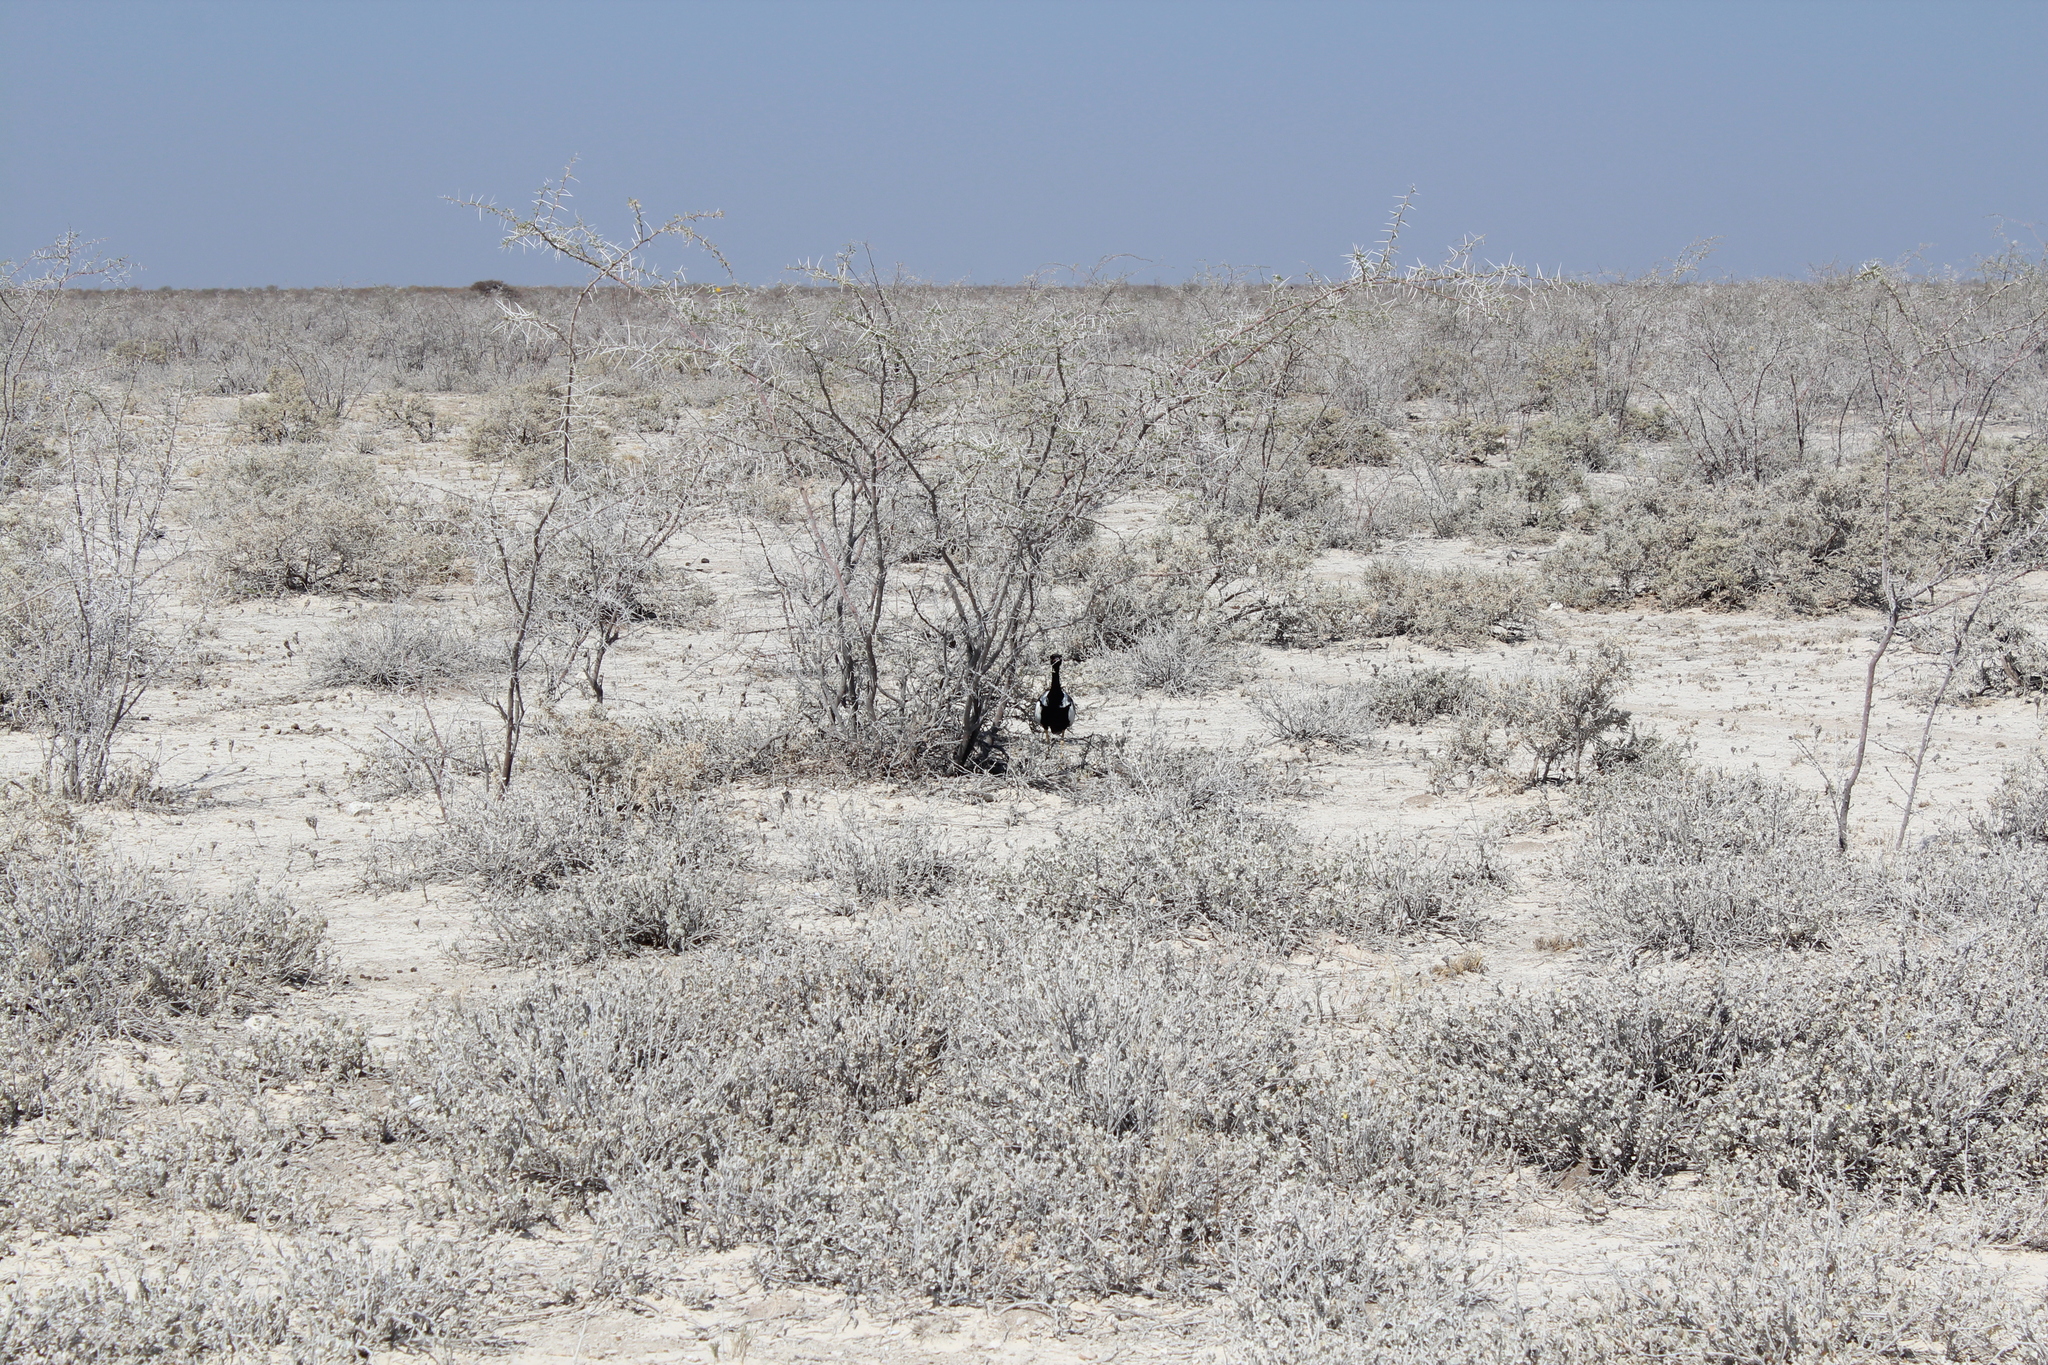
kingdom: Animalia
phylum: Chordata
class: Aves
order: Otidiformes
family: Otididae
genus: Afrotis
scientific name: Afrotis afraoides
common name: Northern black korhaan
